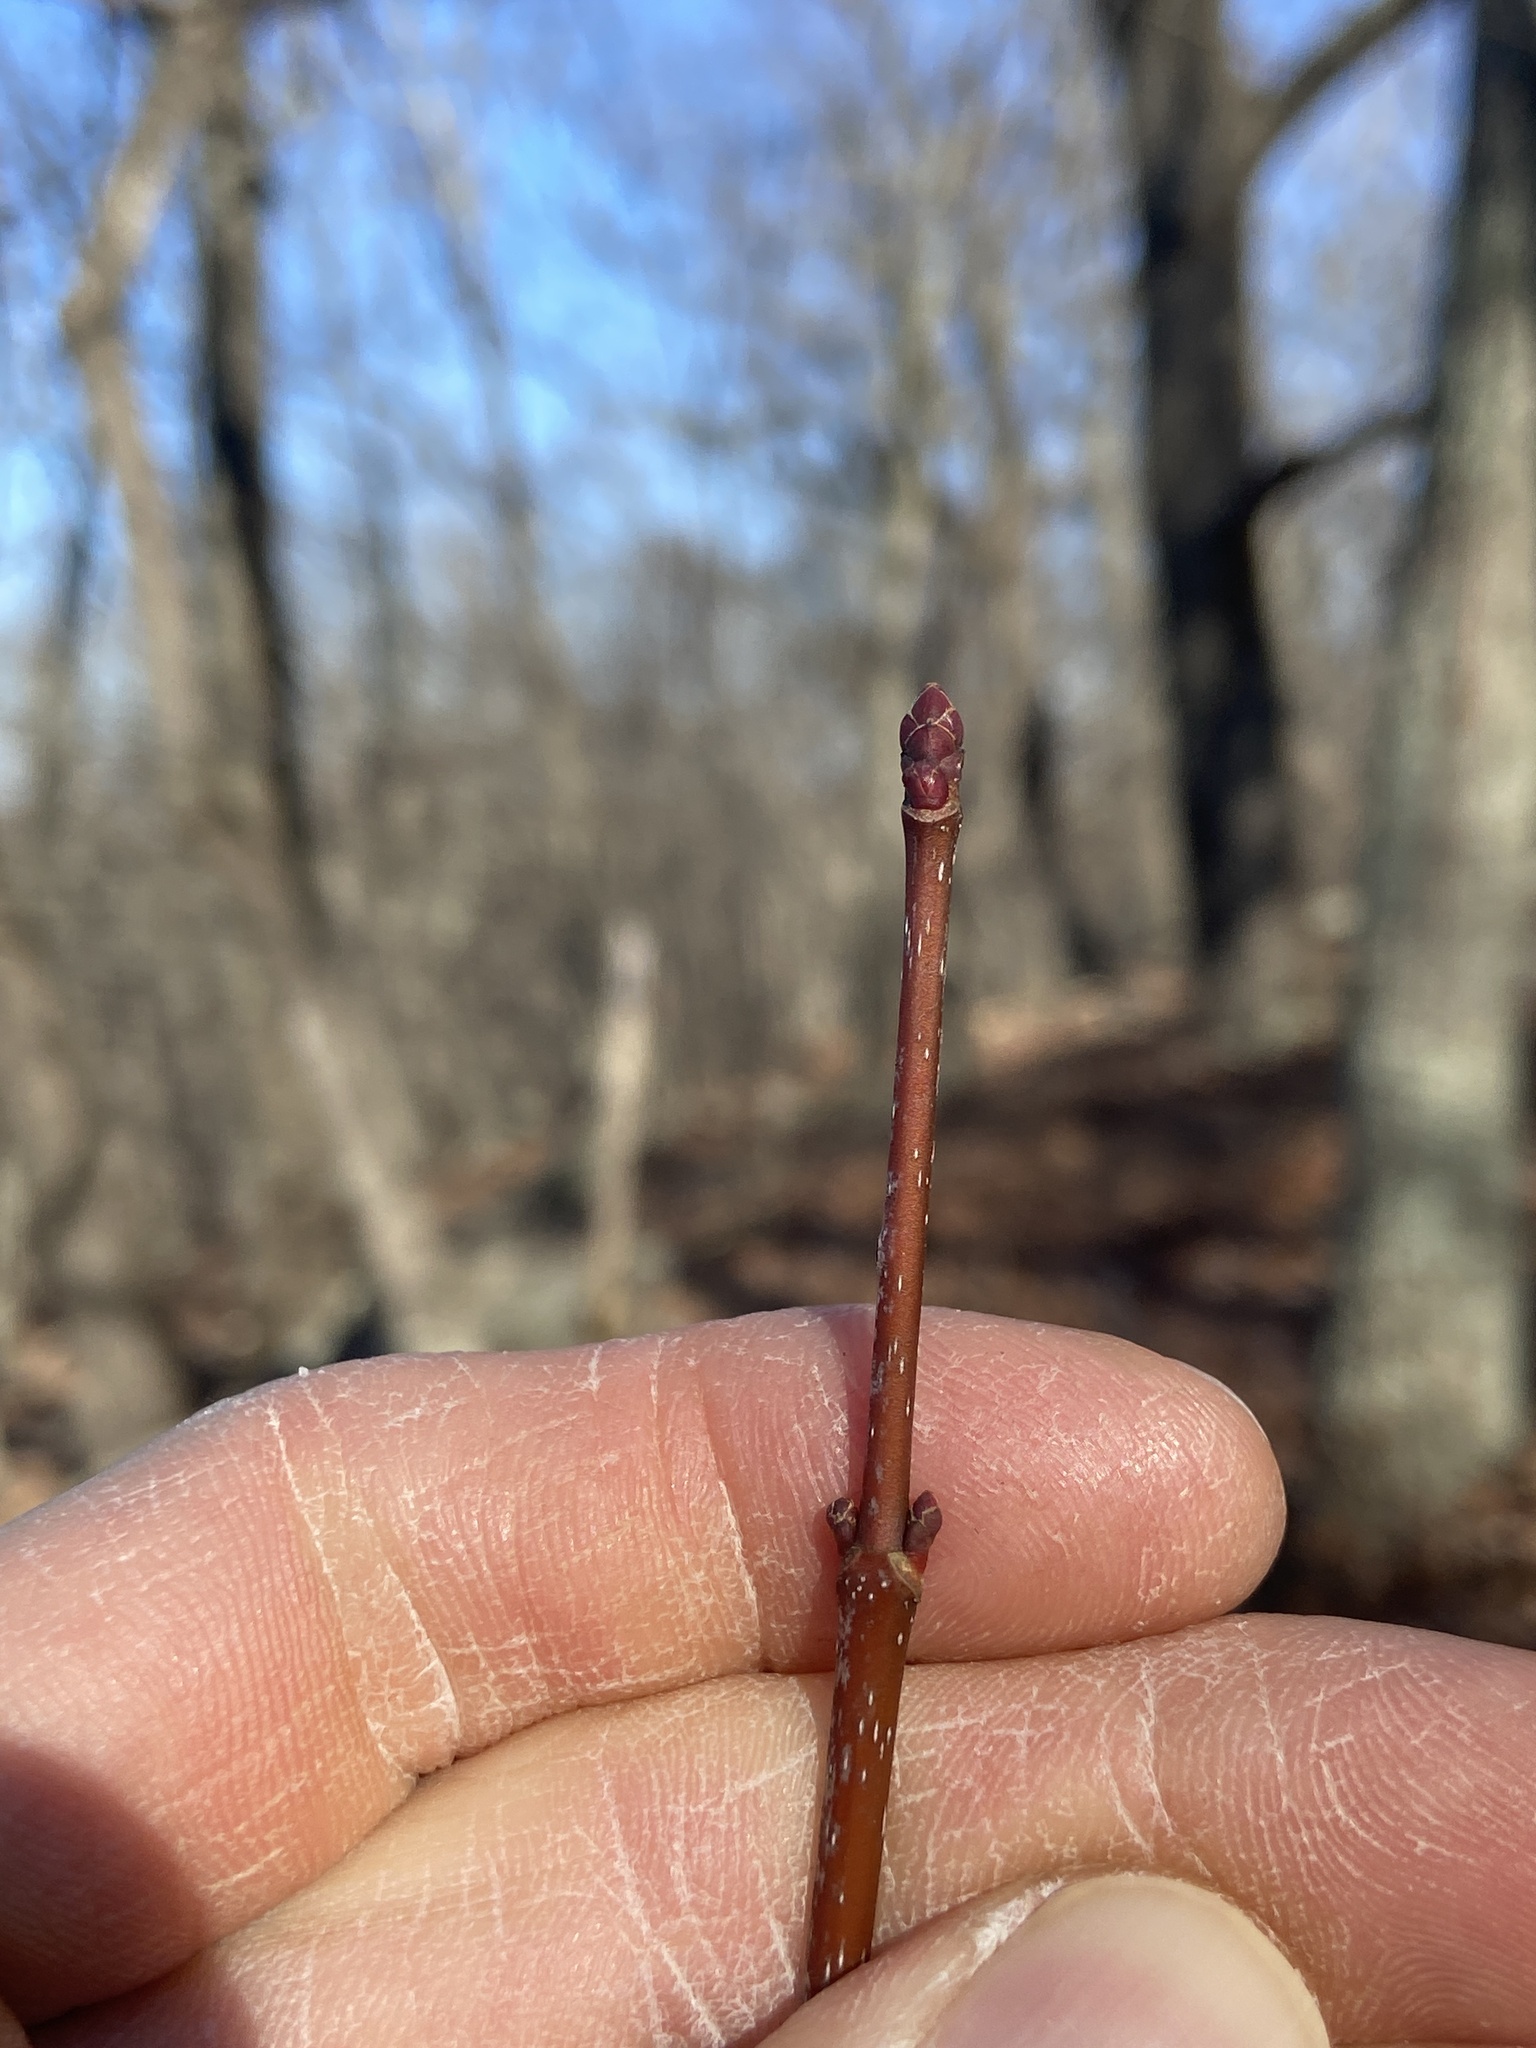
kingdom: Plantae
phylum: Tracheophyta
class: Magnoliopsida
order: Sapindales
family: Sapindaceae
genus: Acer
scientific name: Acer rubrum
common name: Red maple
